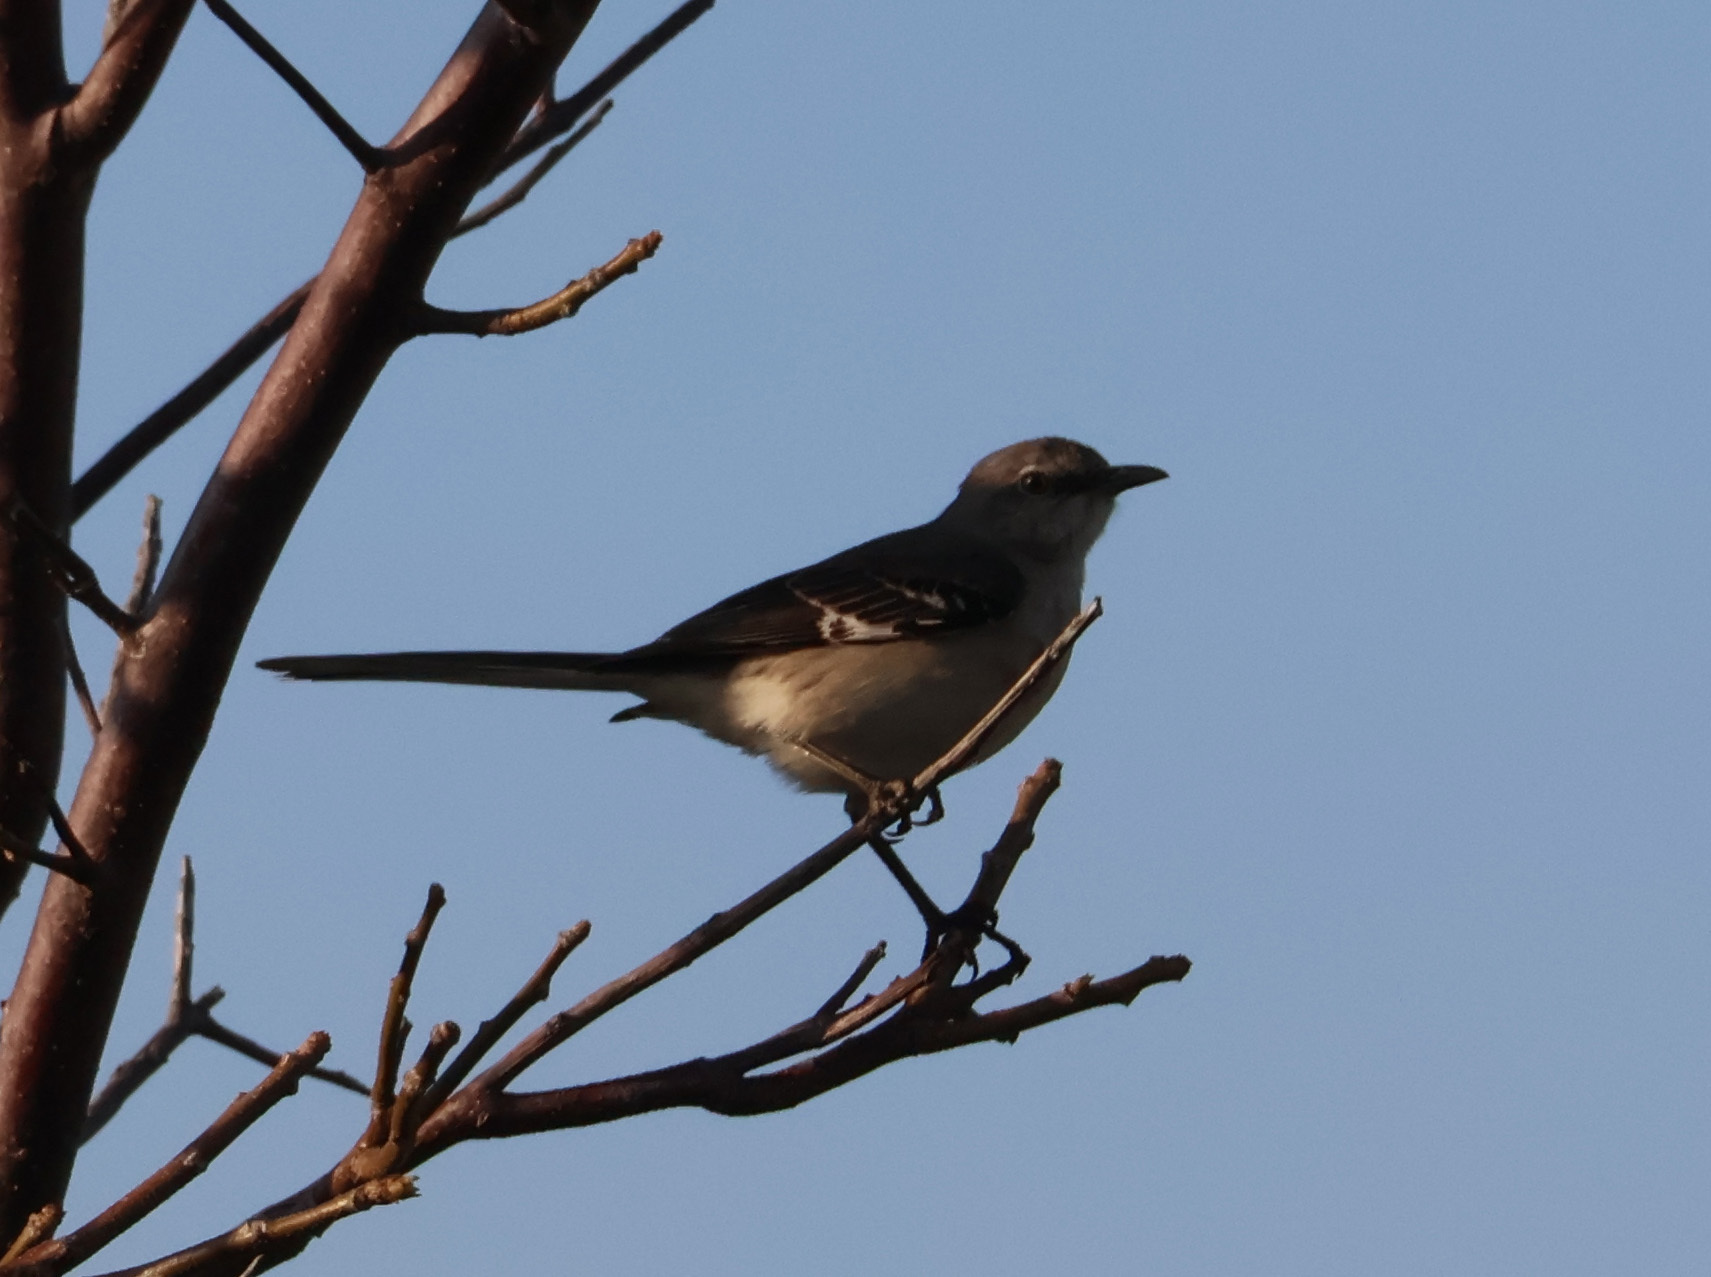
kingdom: Animalia
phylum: Chordata
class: Aves
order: Passeriformes
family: Mimidae
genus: Mimus
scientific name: Mimus polyglottos
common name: Northern mockingbird
